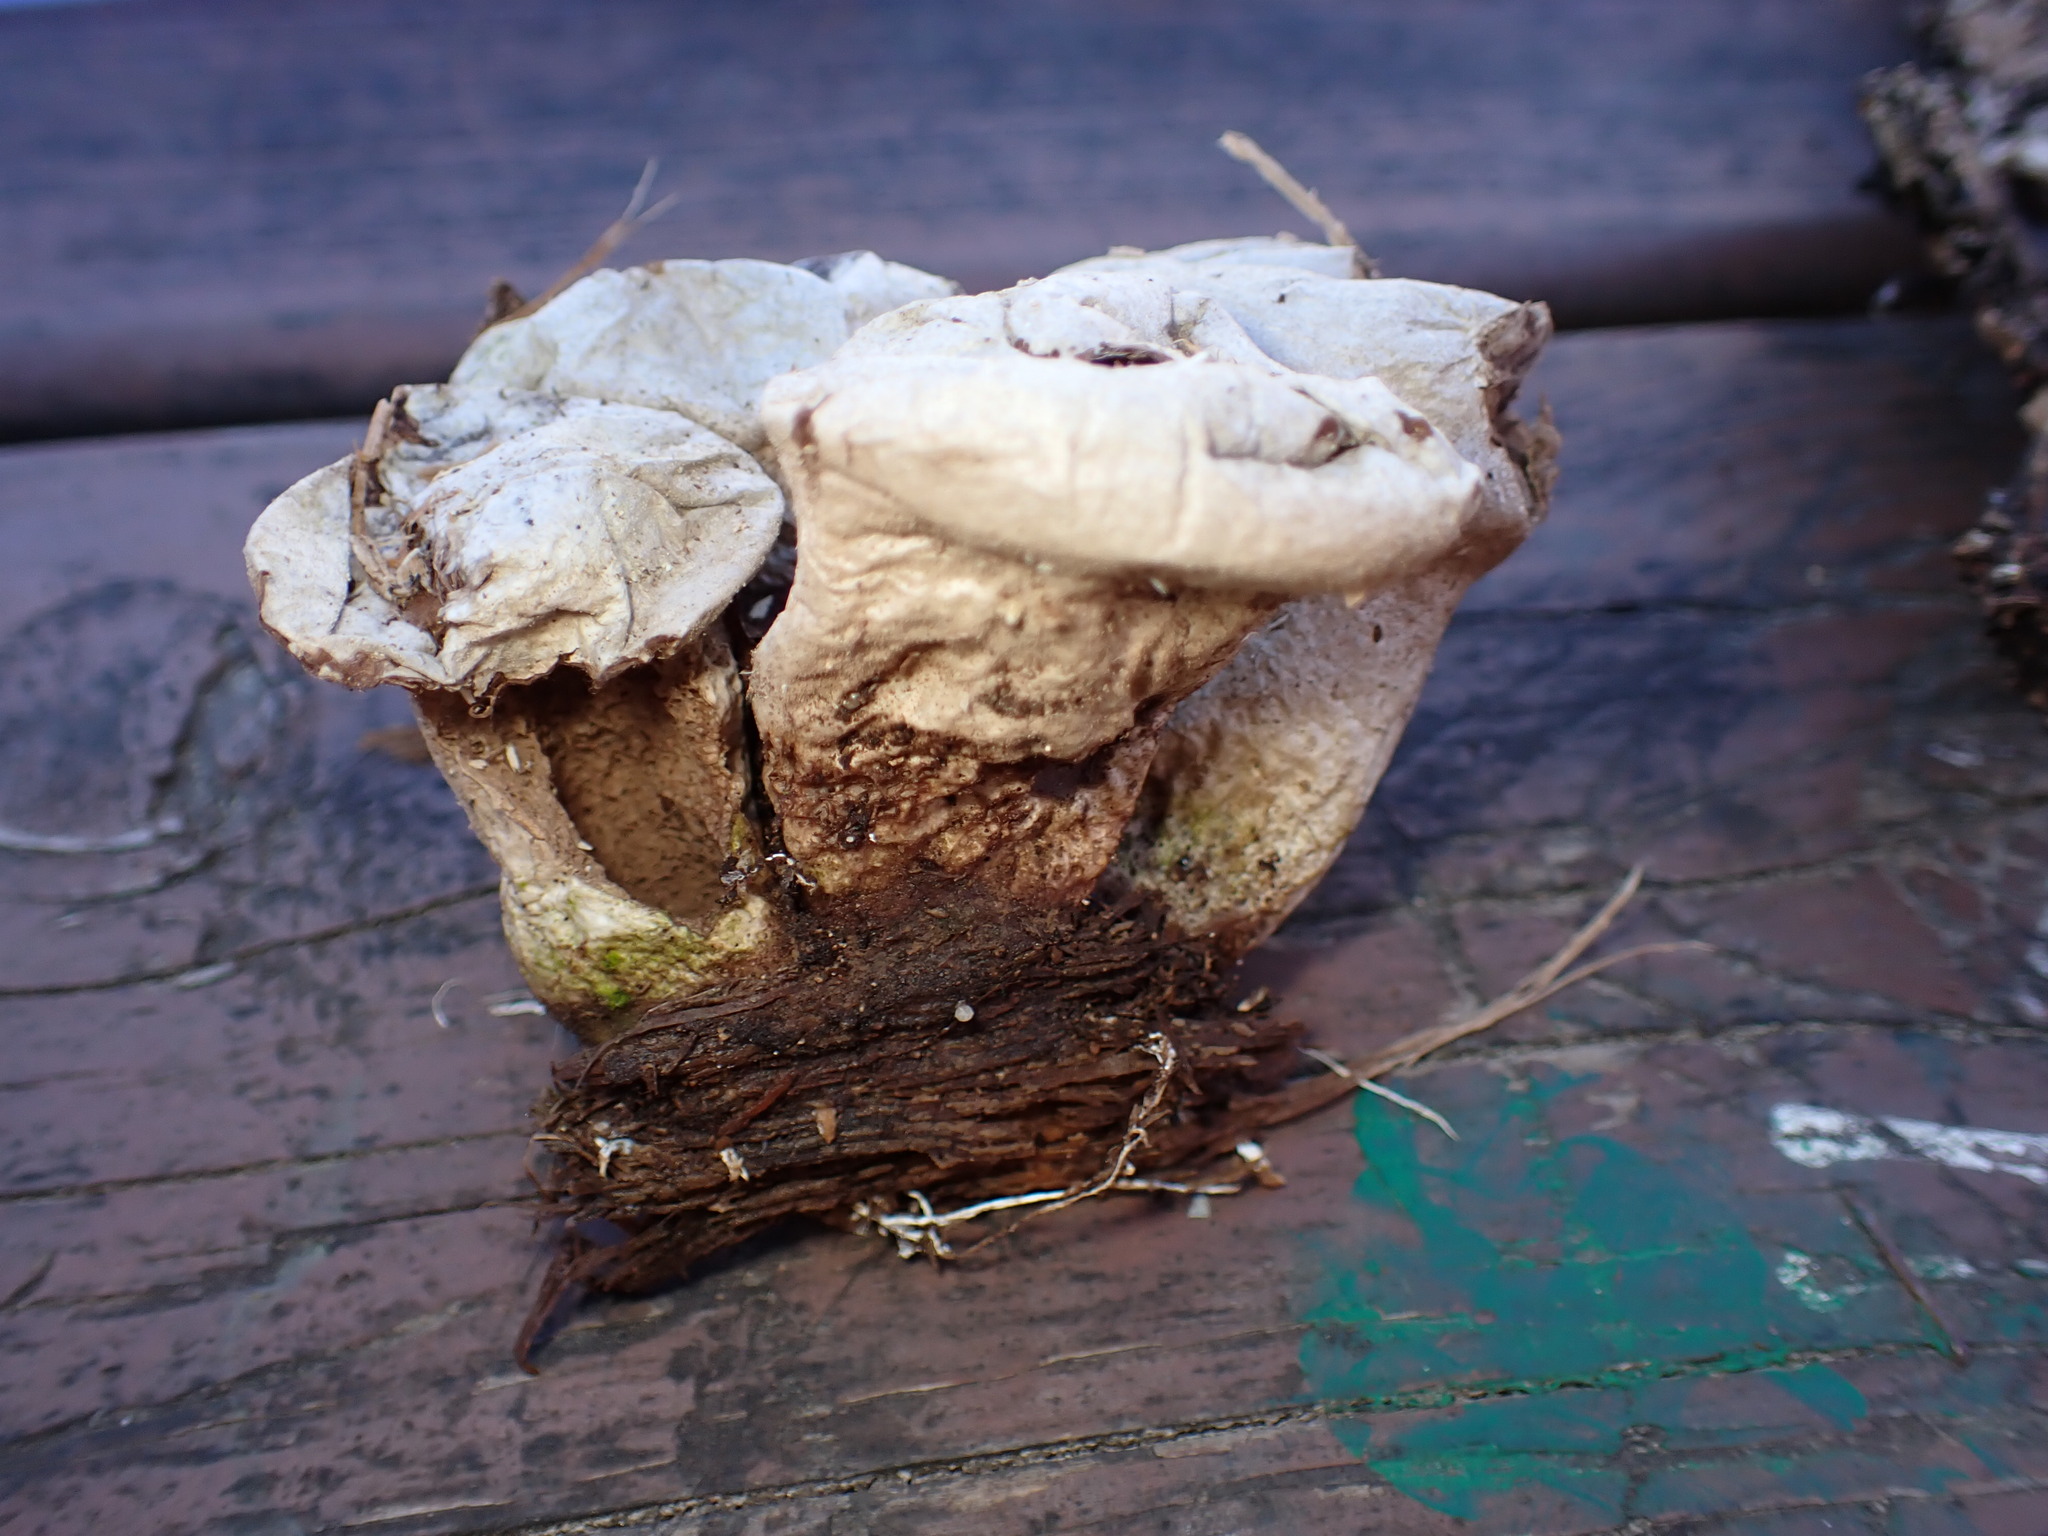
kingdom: Fungi
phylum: Basidiomycota
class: Agaricomycetes
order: Agaricales
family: Lycoperdaceae
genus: Apioperdon
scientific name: Apioperdon pyriforme
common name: Pear-shaped puffball
